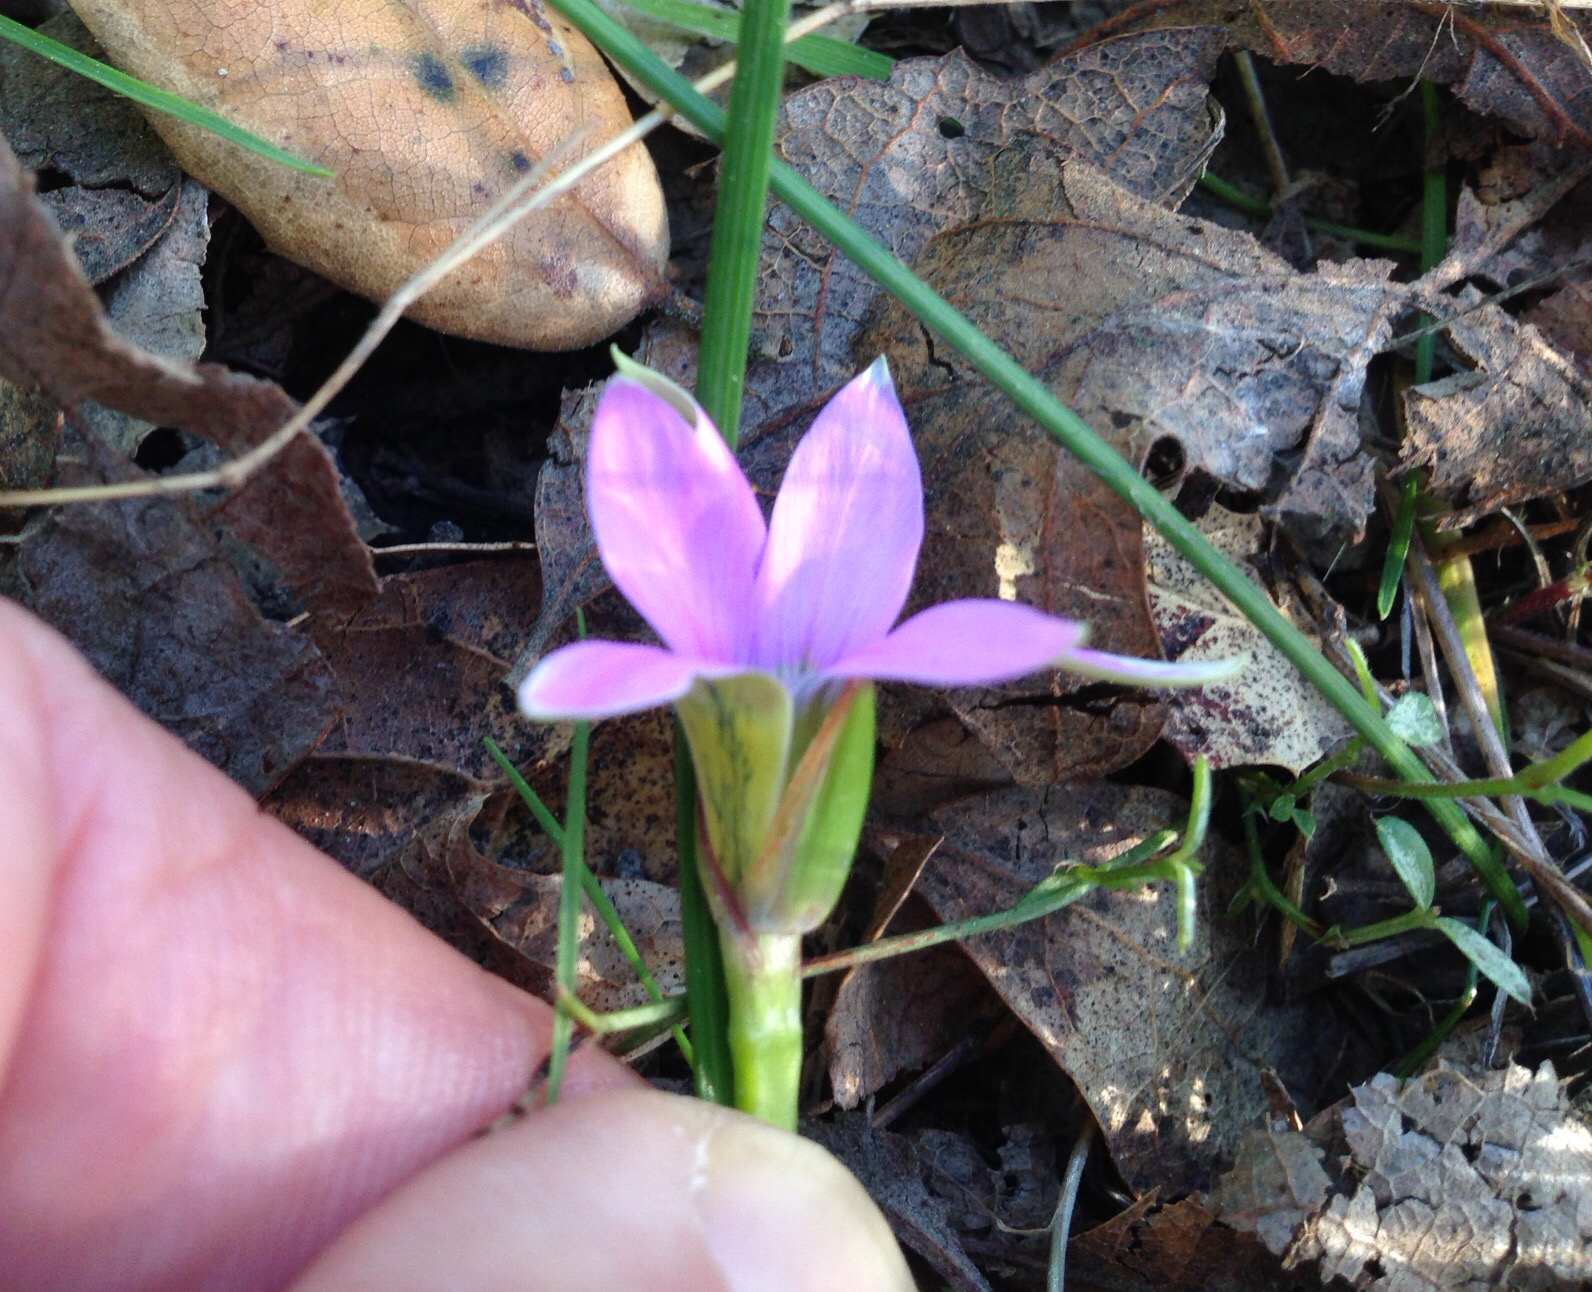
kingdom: Plantae
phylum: Tracheophyta
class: Liliopsida
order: Asparagales
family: Iridaceae
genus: Romulea
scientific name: Romulea rosea
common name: Oniongrass
